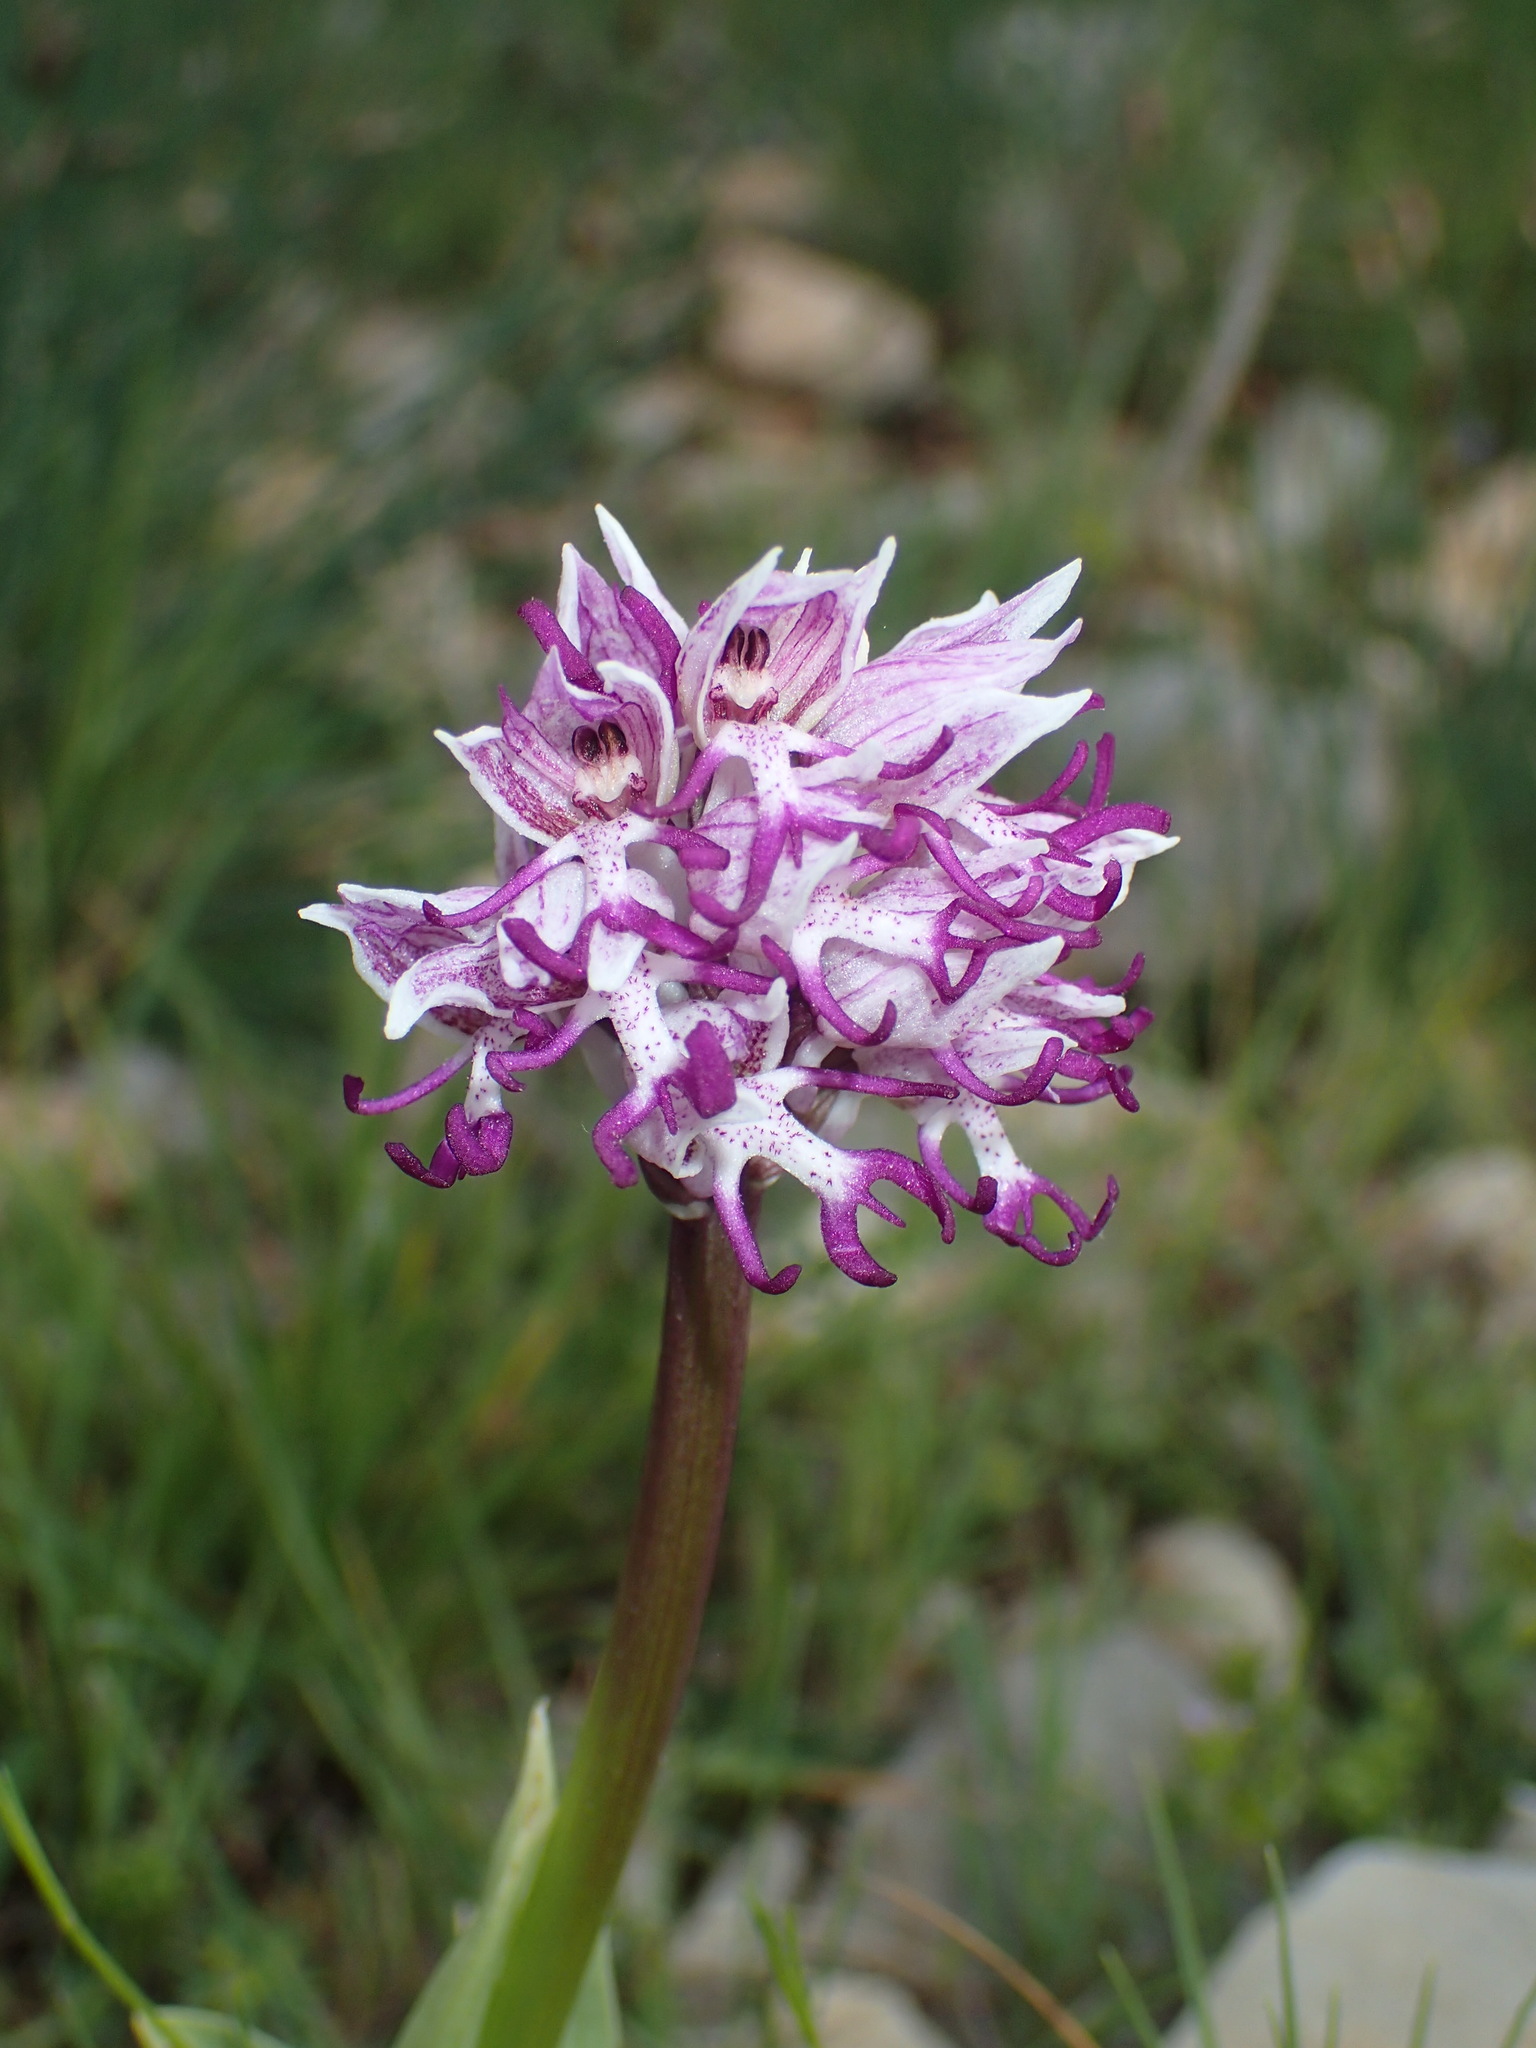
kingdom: Plantae
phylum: Tracheophyta
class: Liliopsida
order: Asparagales
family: Orchidaceae
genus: Orchis
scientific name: Orchis simia
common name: Monkey orchid
